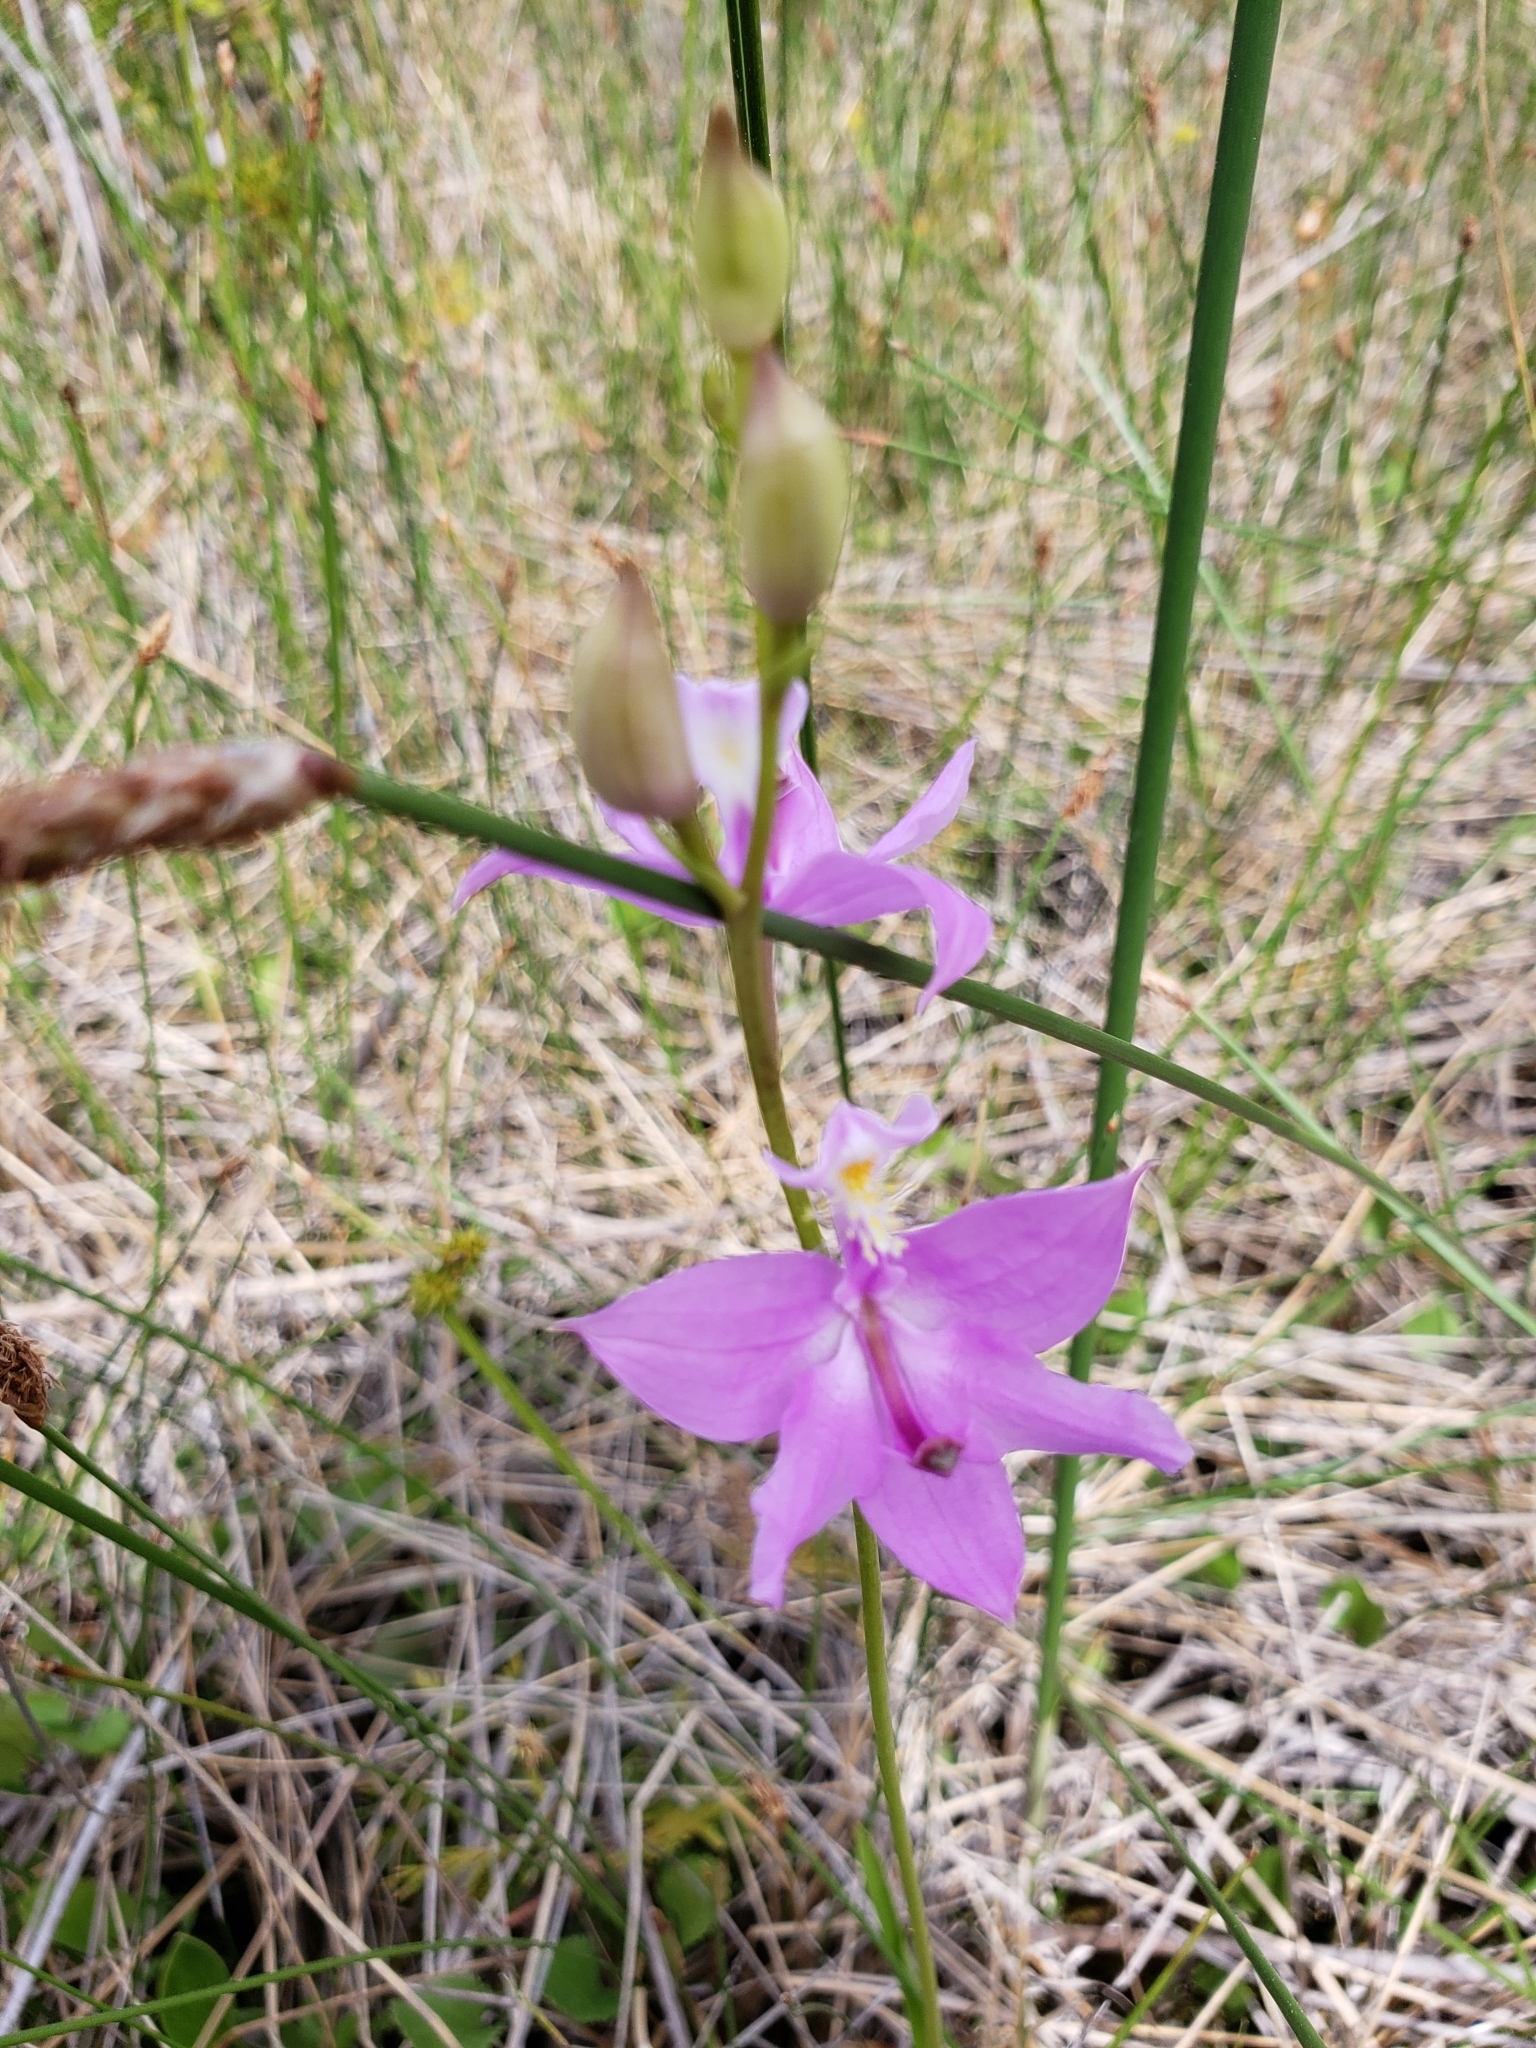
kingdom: Plantae
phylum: Tracheophyta
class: Liliopsida
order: Asparagales
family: Orchidaceae
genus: Calopogon
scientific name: Calopogon tuberosus
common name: Grass-pink
